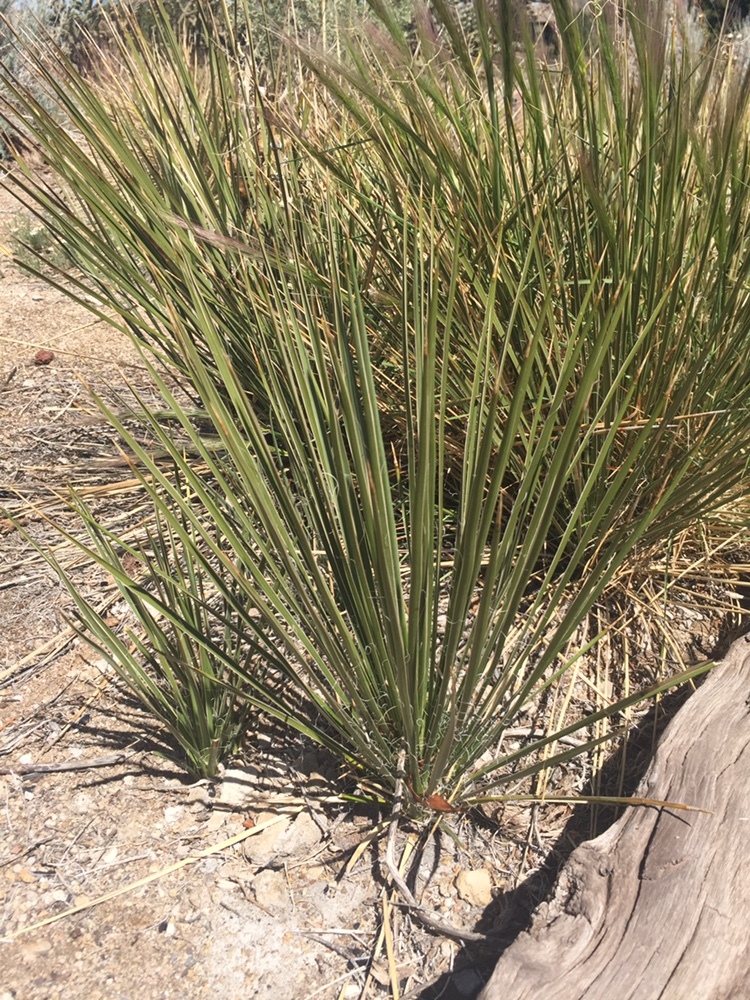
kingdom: Plantae
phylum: Tracheophyta
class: Liliopsida
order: Asparagales
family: Asparagaceae
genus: Yucca
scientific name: Yucca glauca
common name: Great plains yucca
